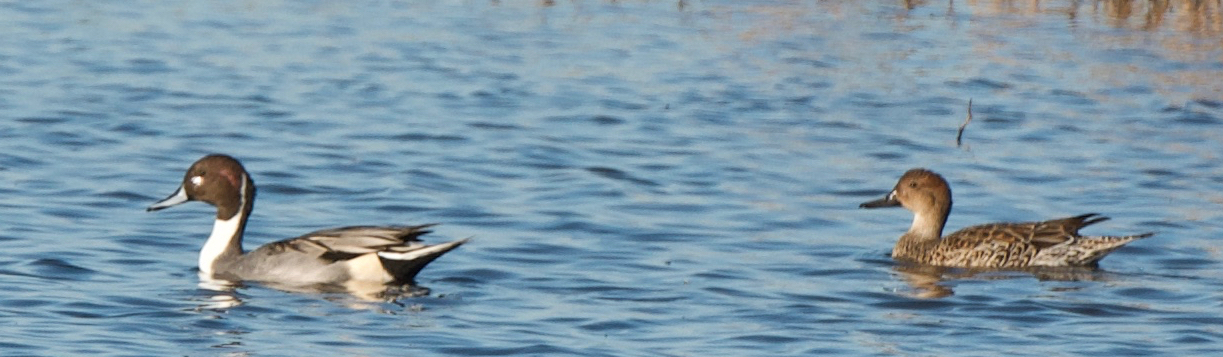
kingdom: Animalia
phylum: Chordata
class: Aves
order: Anseriformes
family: Anatidae
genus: Anas
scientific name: Anas acuta
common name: Northern pintail
